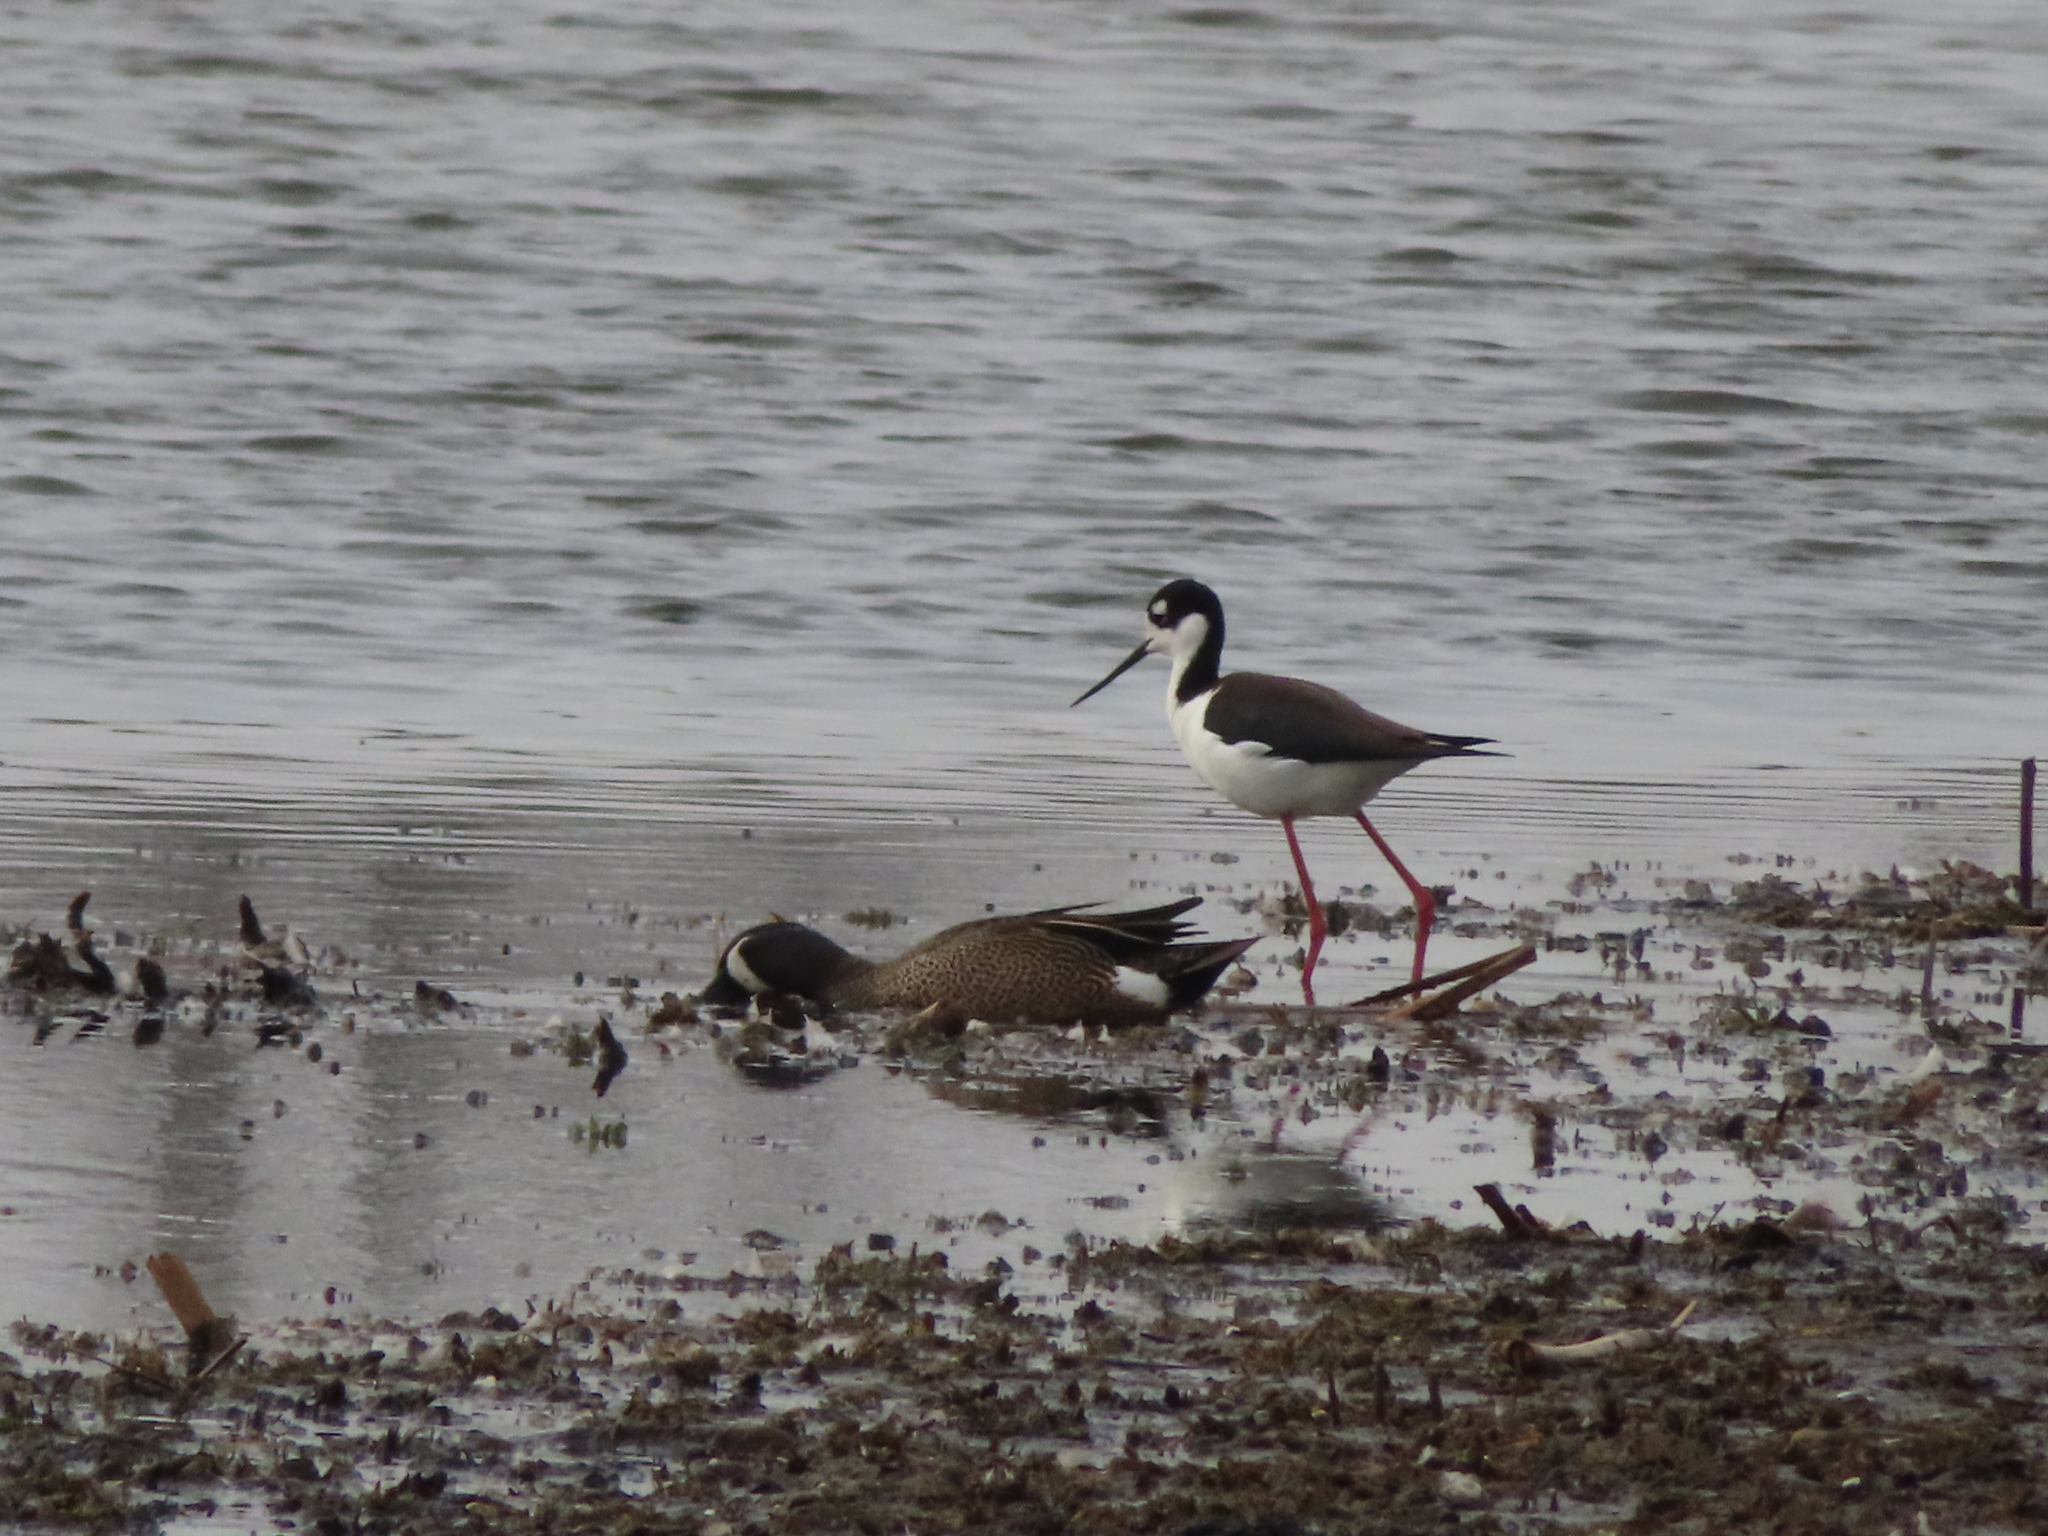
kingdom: Animalia
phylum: Chordata
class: Aves
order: Charadriiformes
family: Recurvirostridae
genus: Himantopus
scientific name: Himantopus mexicanus
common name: Black-necked stilt
